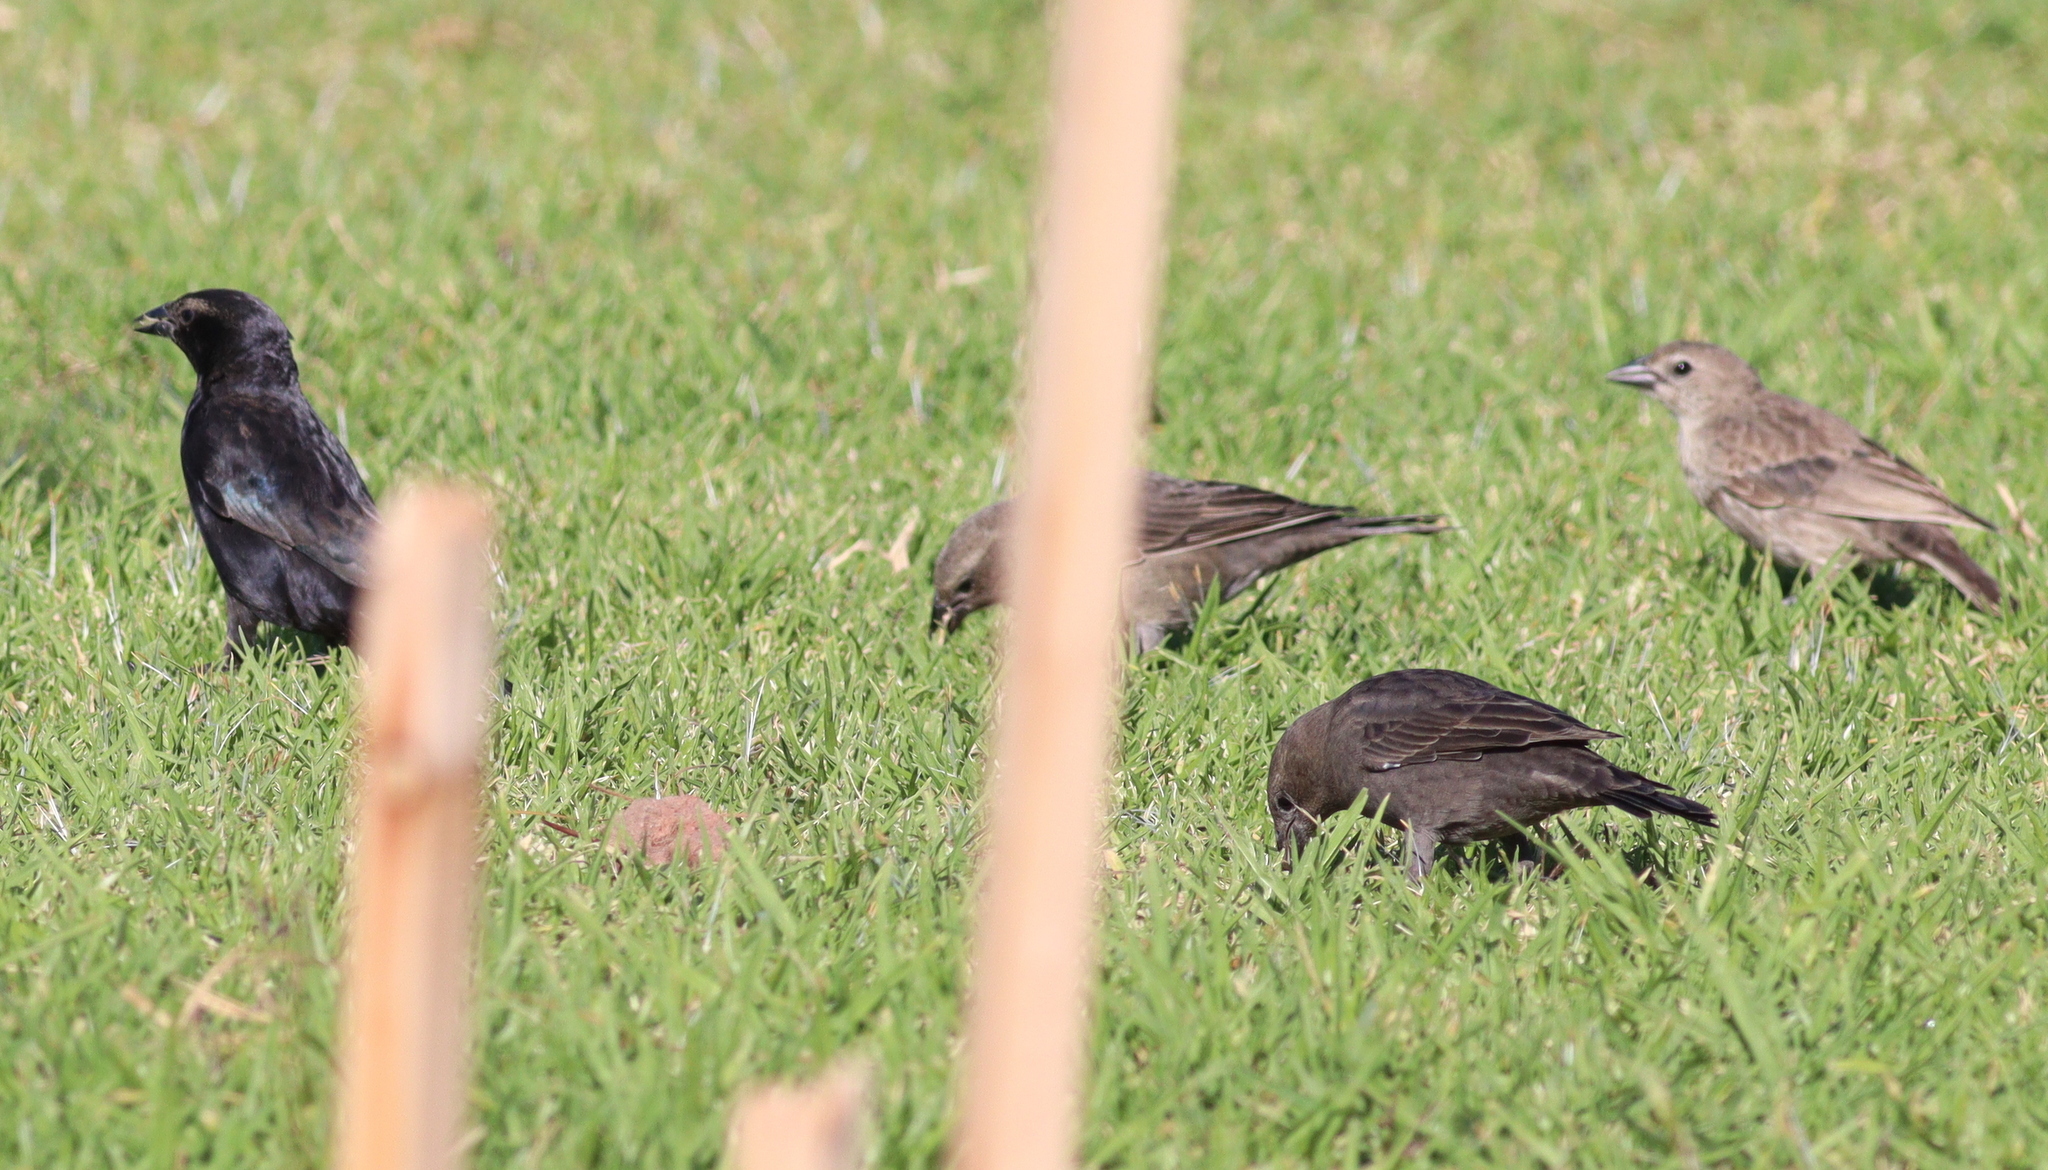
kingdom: Animalia
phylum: Chordata
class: Aves
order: Passeriformes
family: Icteridae
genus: Molothrus
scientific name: Molothrus bonariensis
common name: Shiny cowbird
